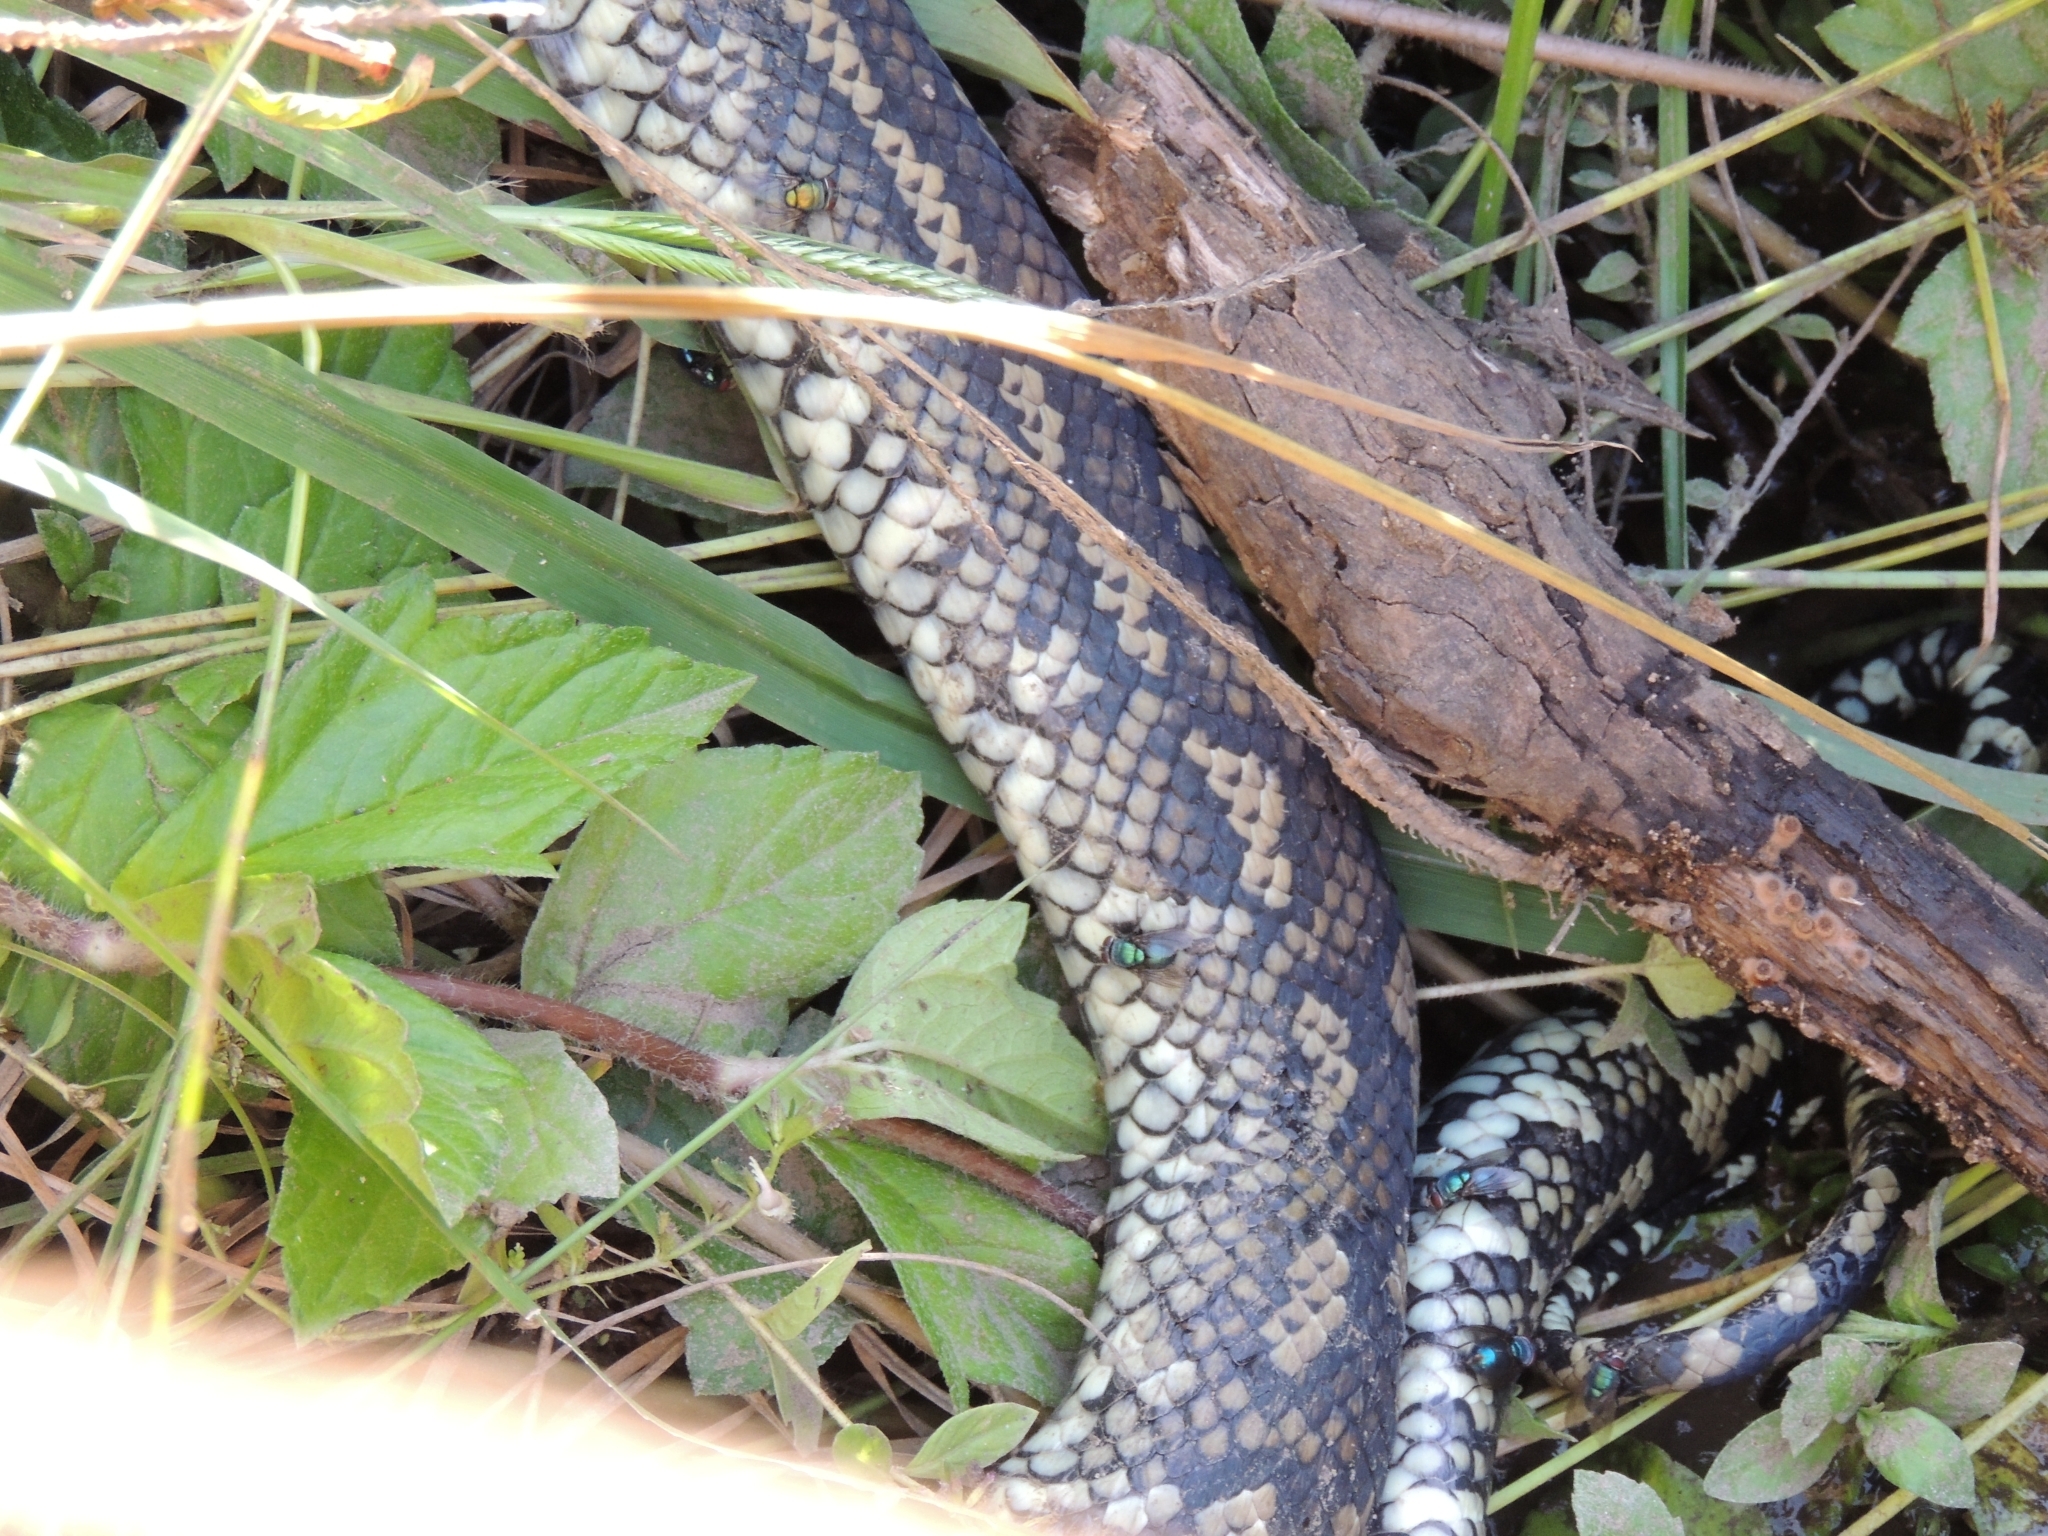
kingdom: Animalia
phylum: Chordata
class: Squamata
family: Pythonidae
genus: Morelia
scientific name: Morelia spilota
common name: Carpet python
